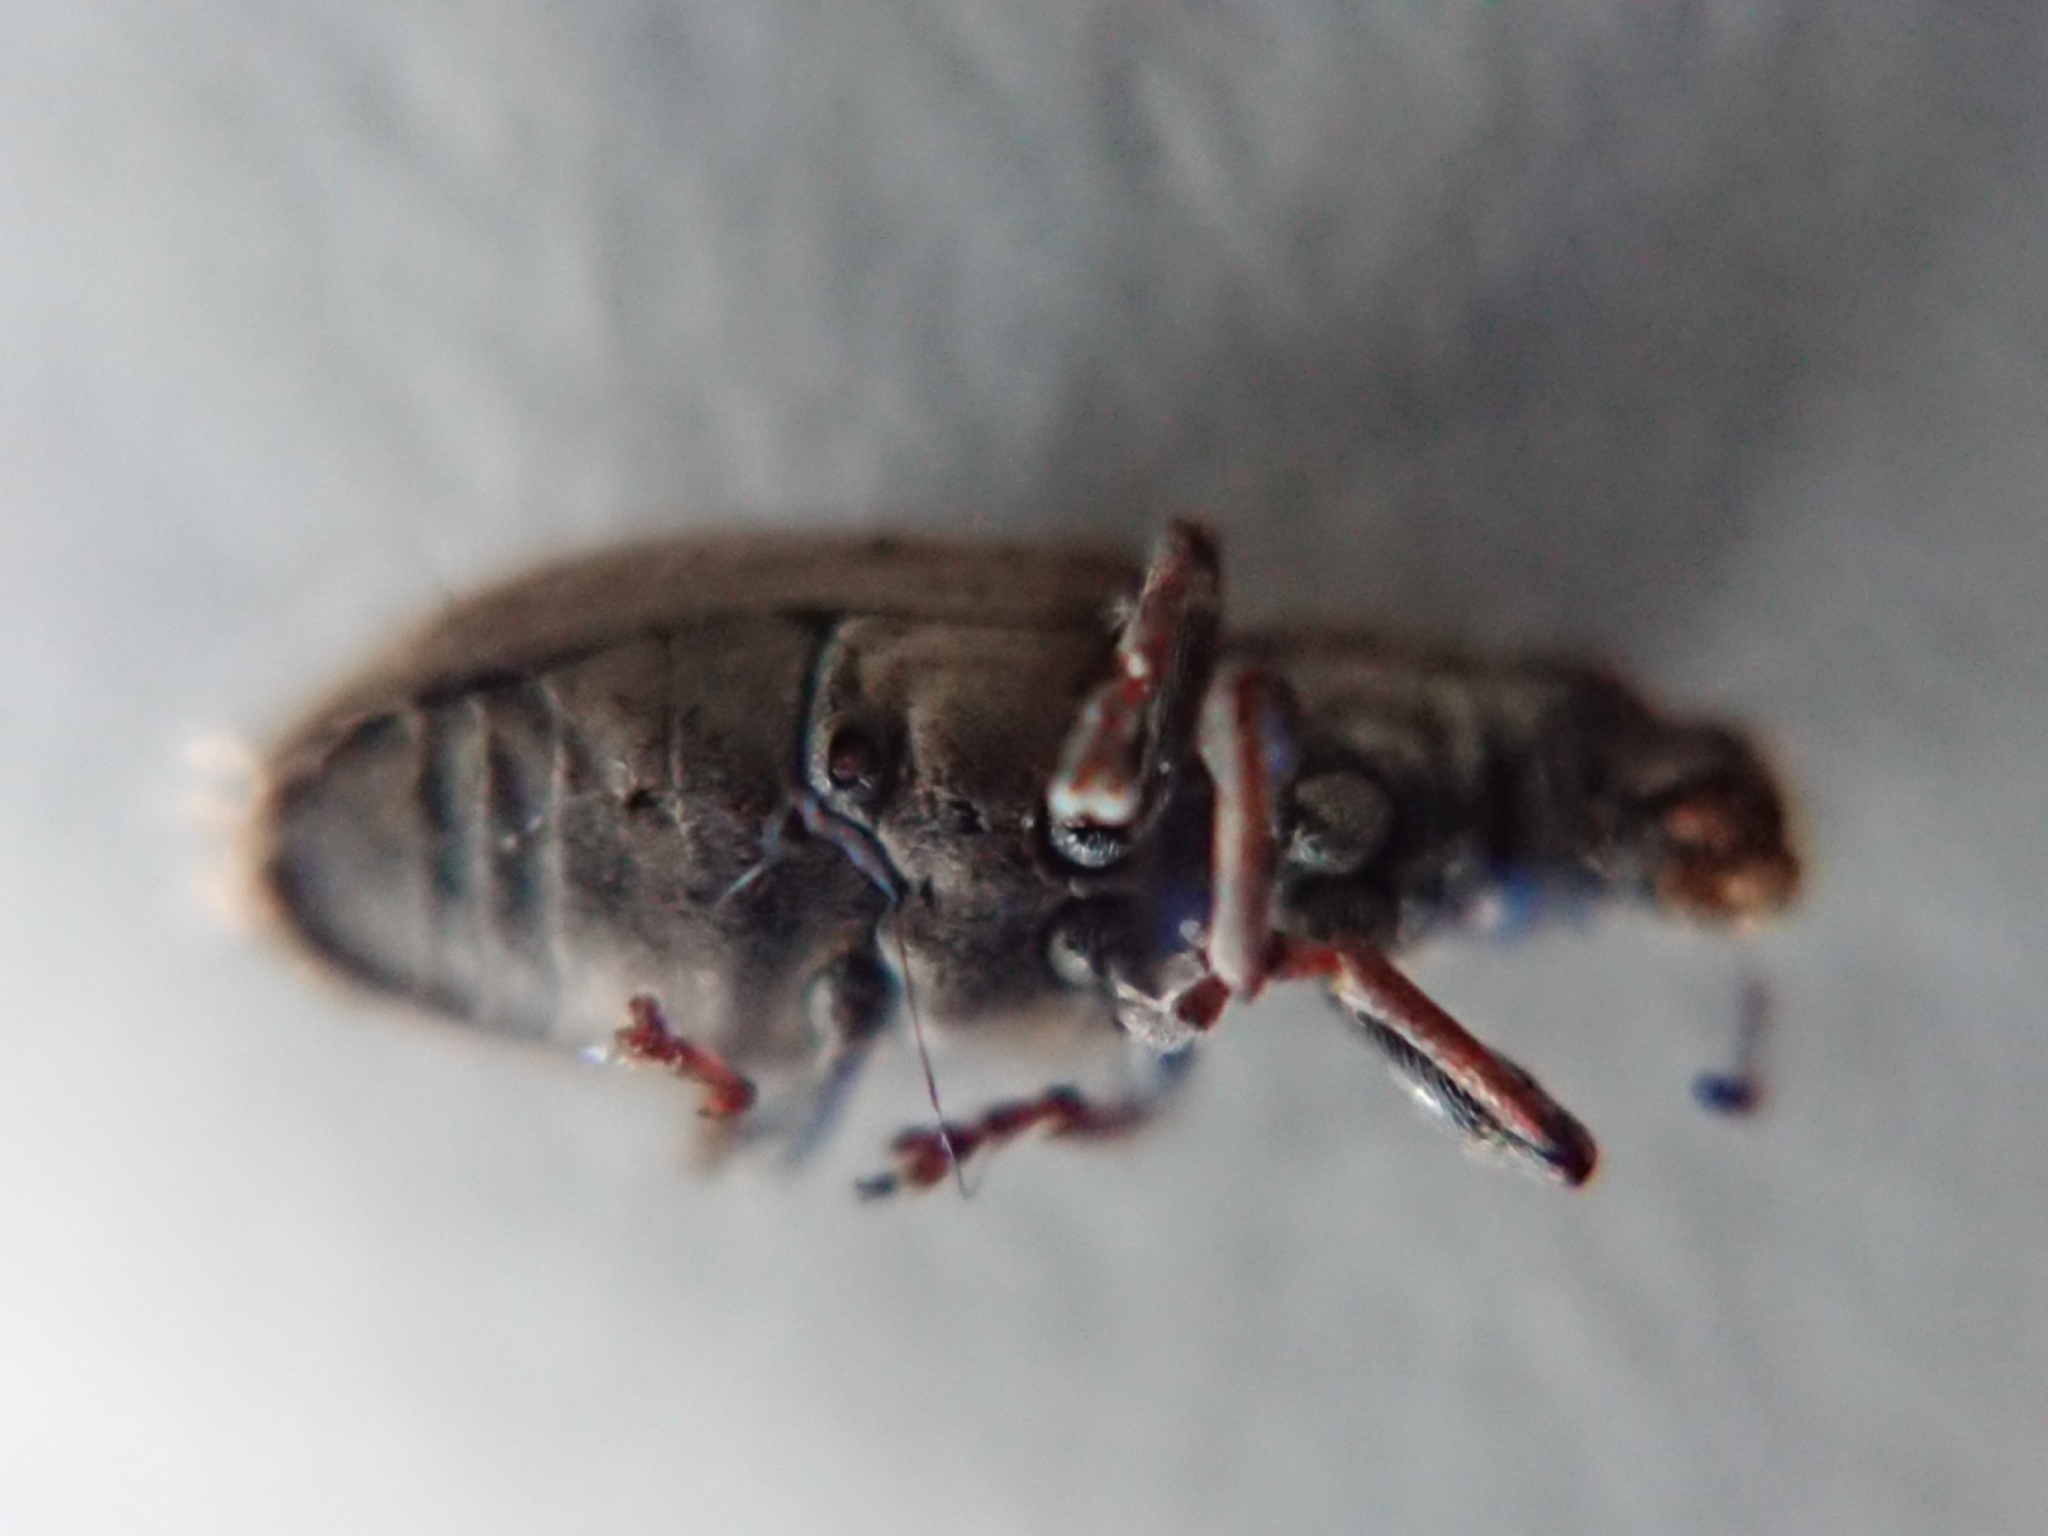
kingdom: Animalia
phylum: Arthropoda
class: Insecta
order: Coleoptera
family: Curculionidae
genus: Sitona
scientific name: Sitona obsoletus
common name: Weevil
